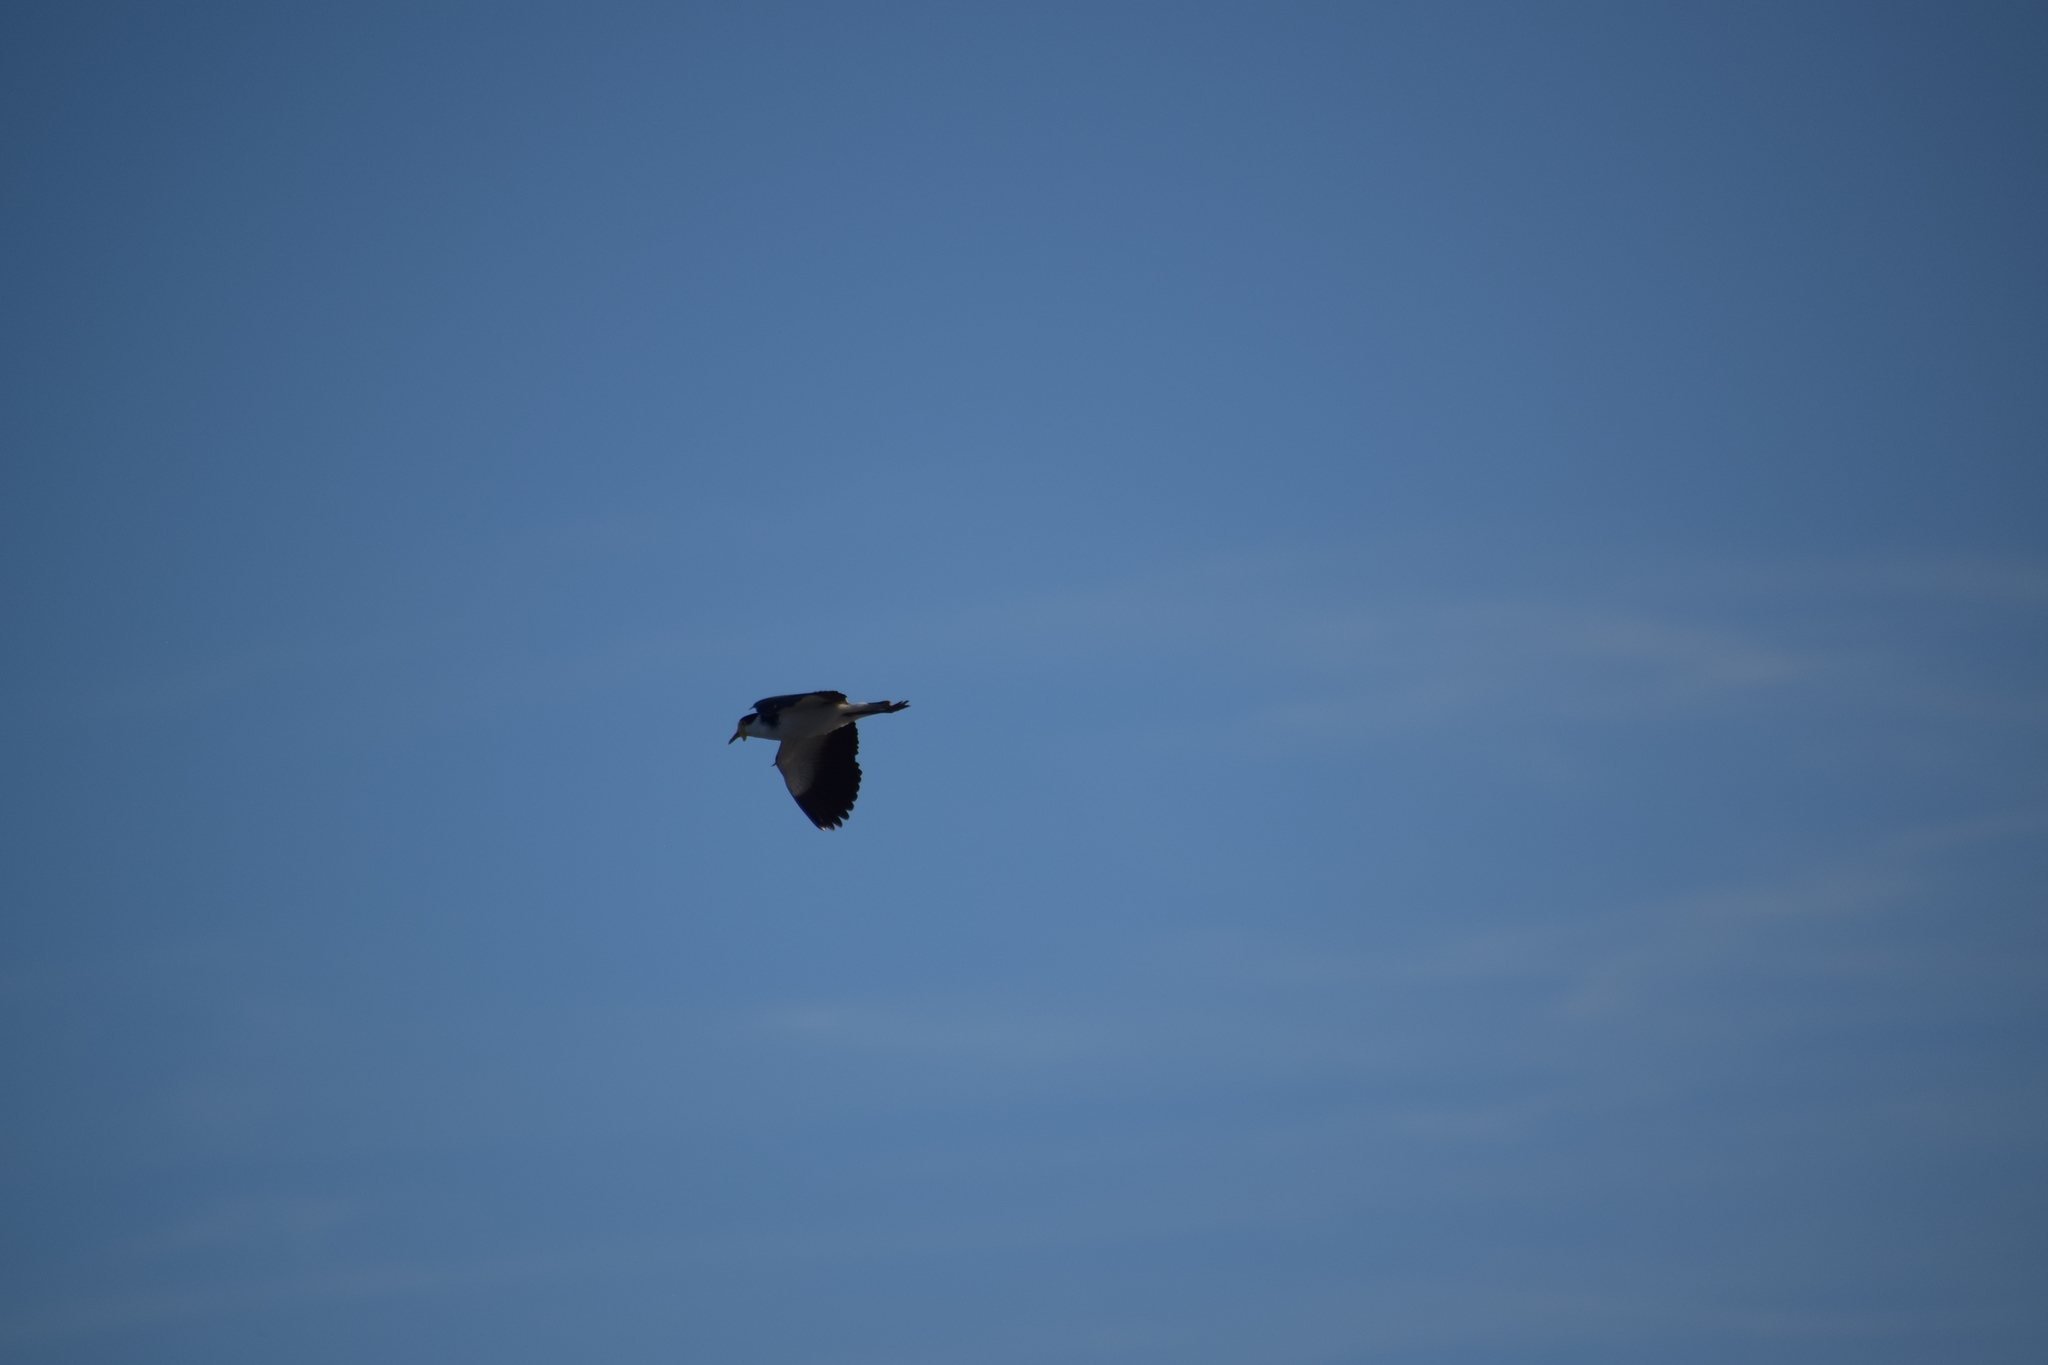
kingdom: Animalia
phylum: Chordata
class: Aves
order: Charadriiformes
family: Charadriidae
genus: Vanellus
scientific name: Vanellus miles
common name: Masked lapwing
